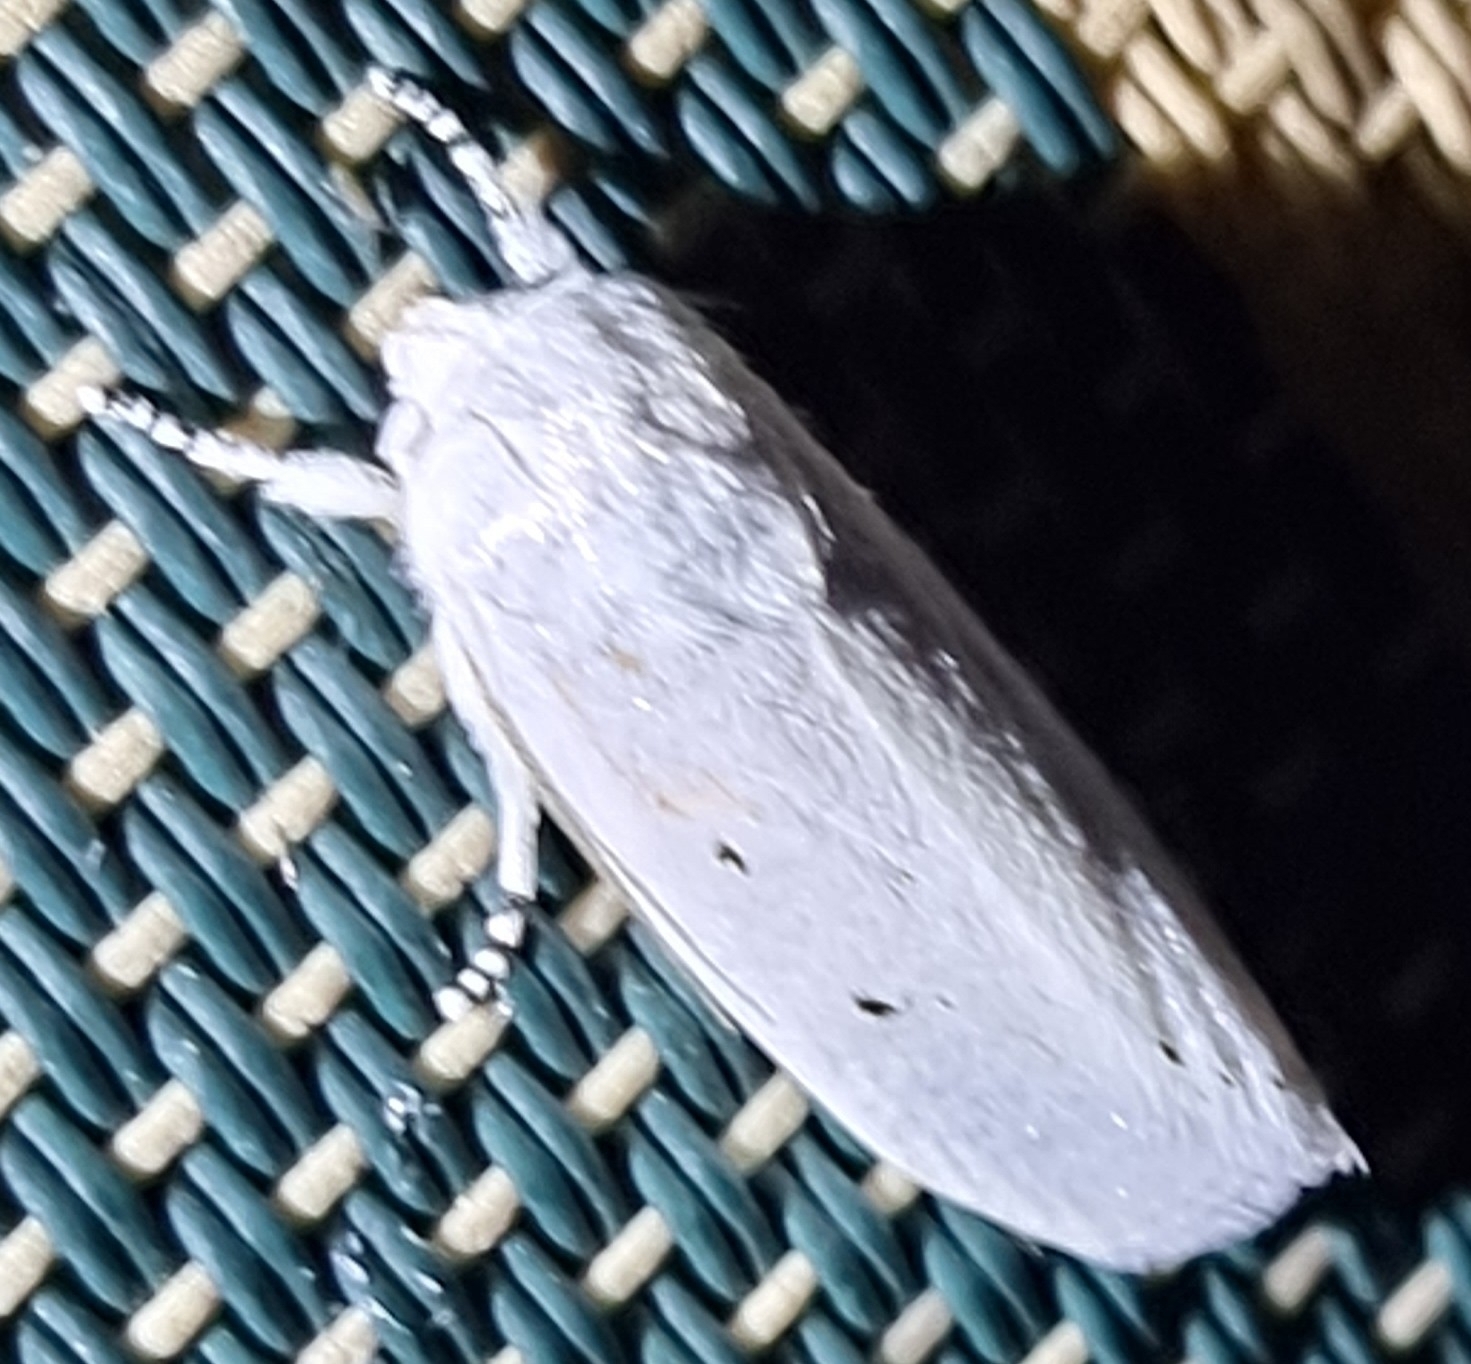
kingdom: Animalia
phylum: Arthropoda
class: Insecta
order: Lepidoptera
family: Xyloryctidae
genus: Cryptophasa
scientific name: Cryptophasa pultenae
